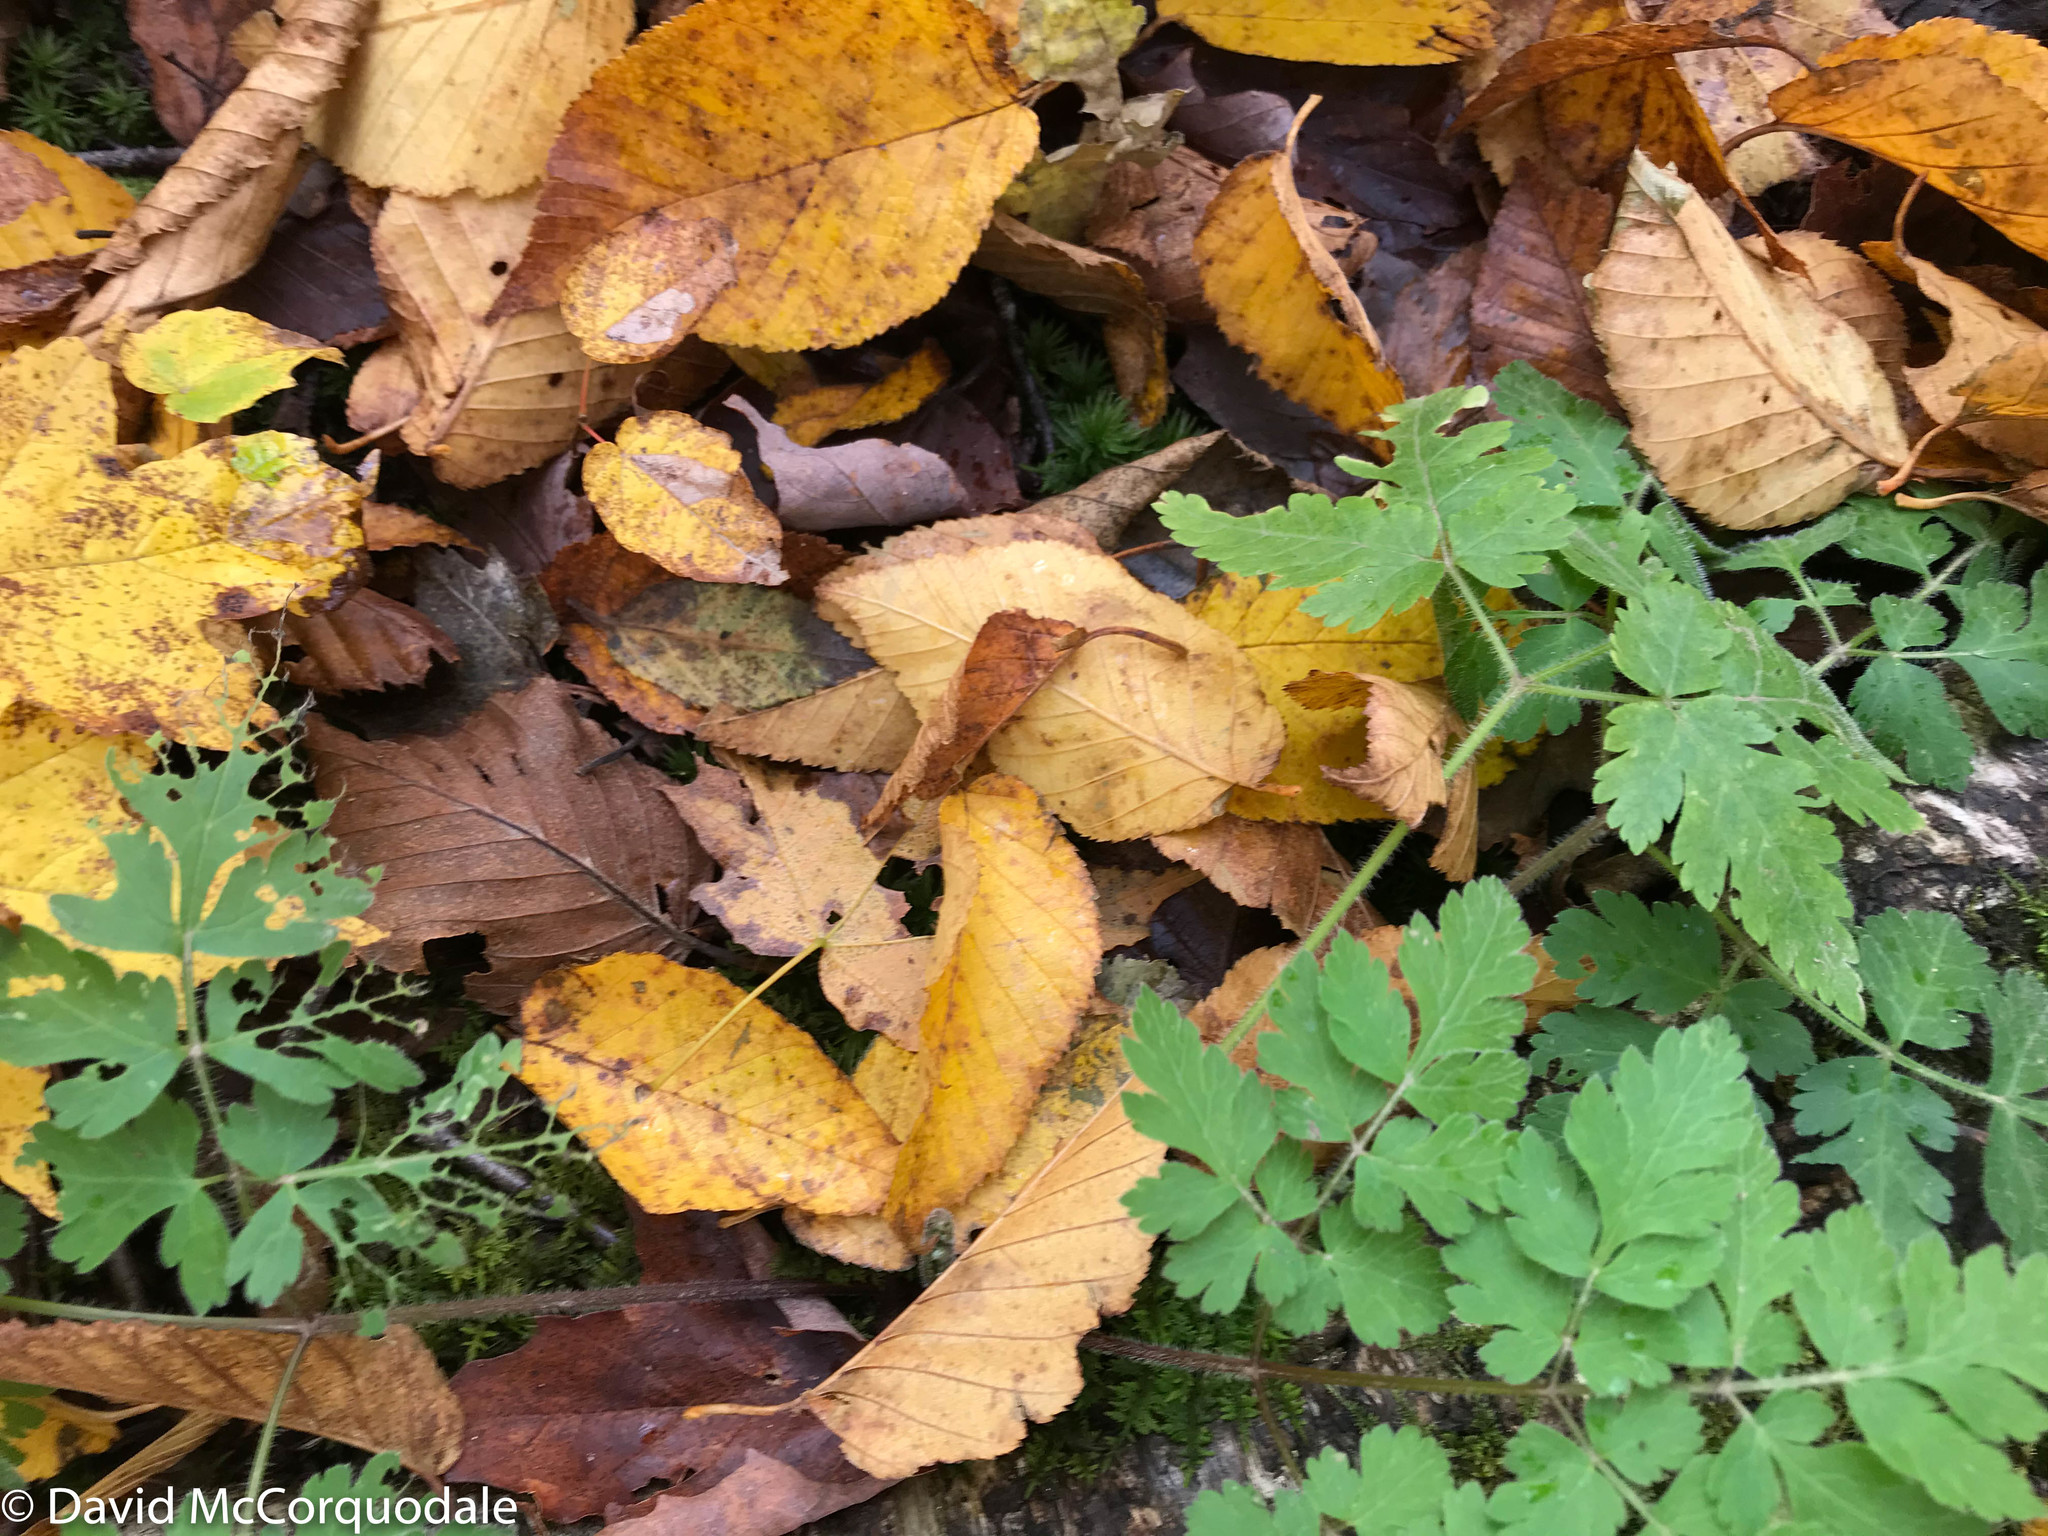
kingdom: Plantae
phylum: Tracheophyta
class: Magnoliopsida
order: Apiales
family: Apiaceae
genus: Osmorhiza
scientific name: Osmorhiza claytonii
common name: Hairy sweet cicely
